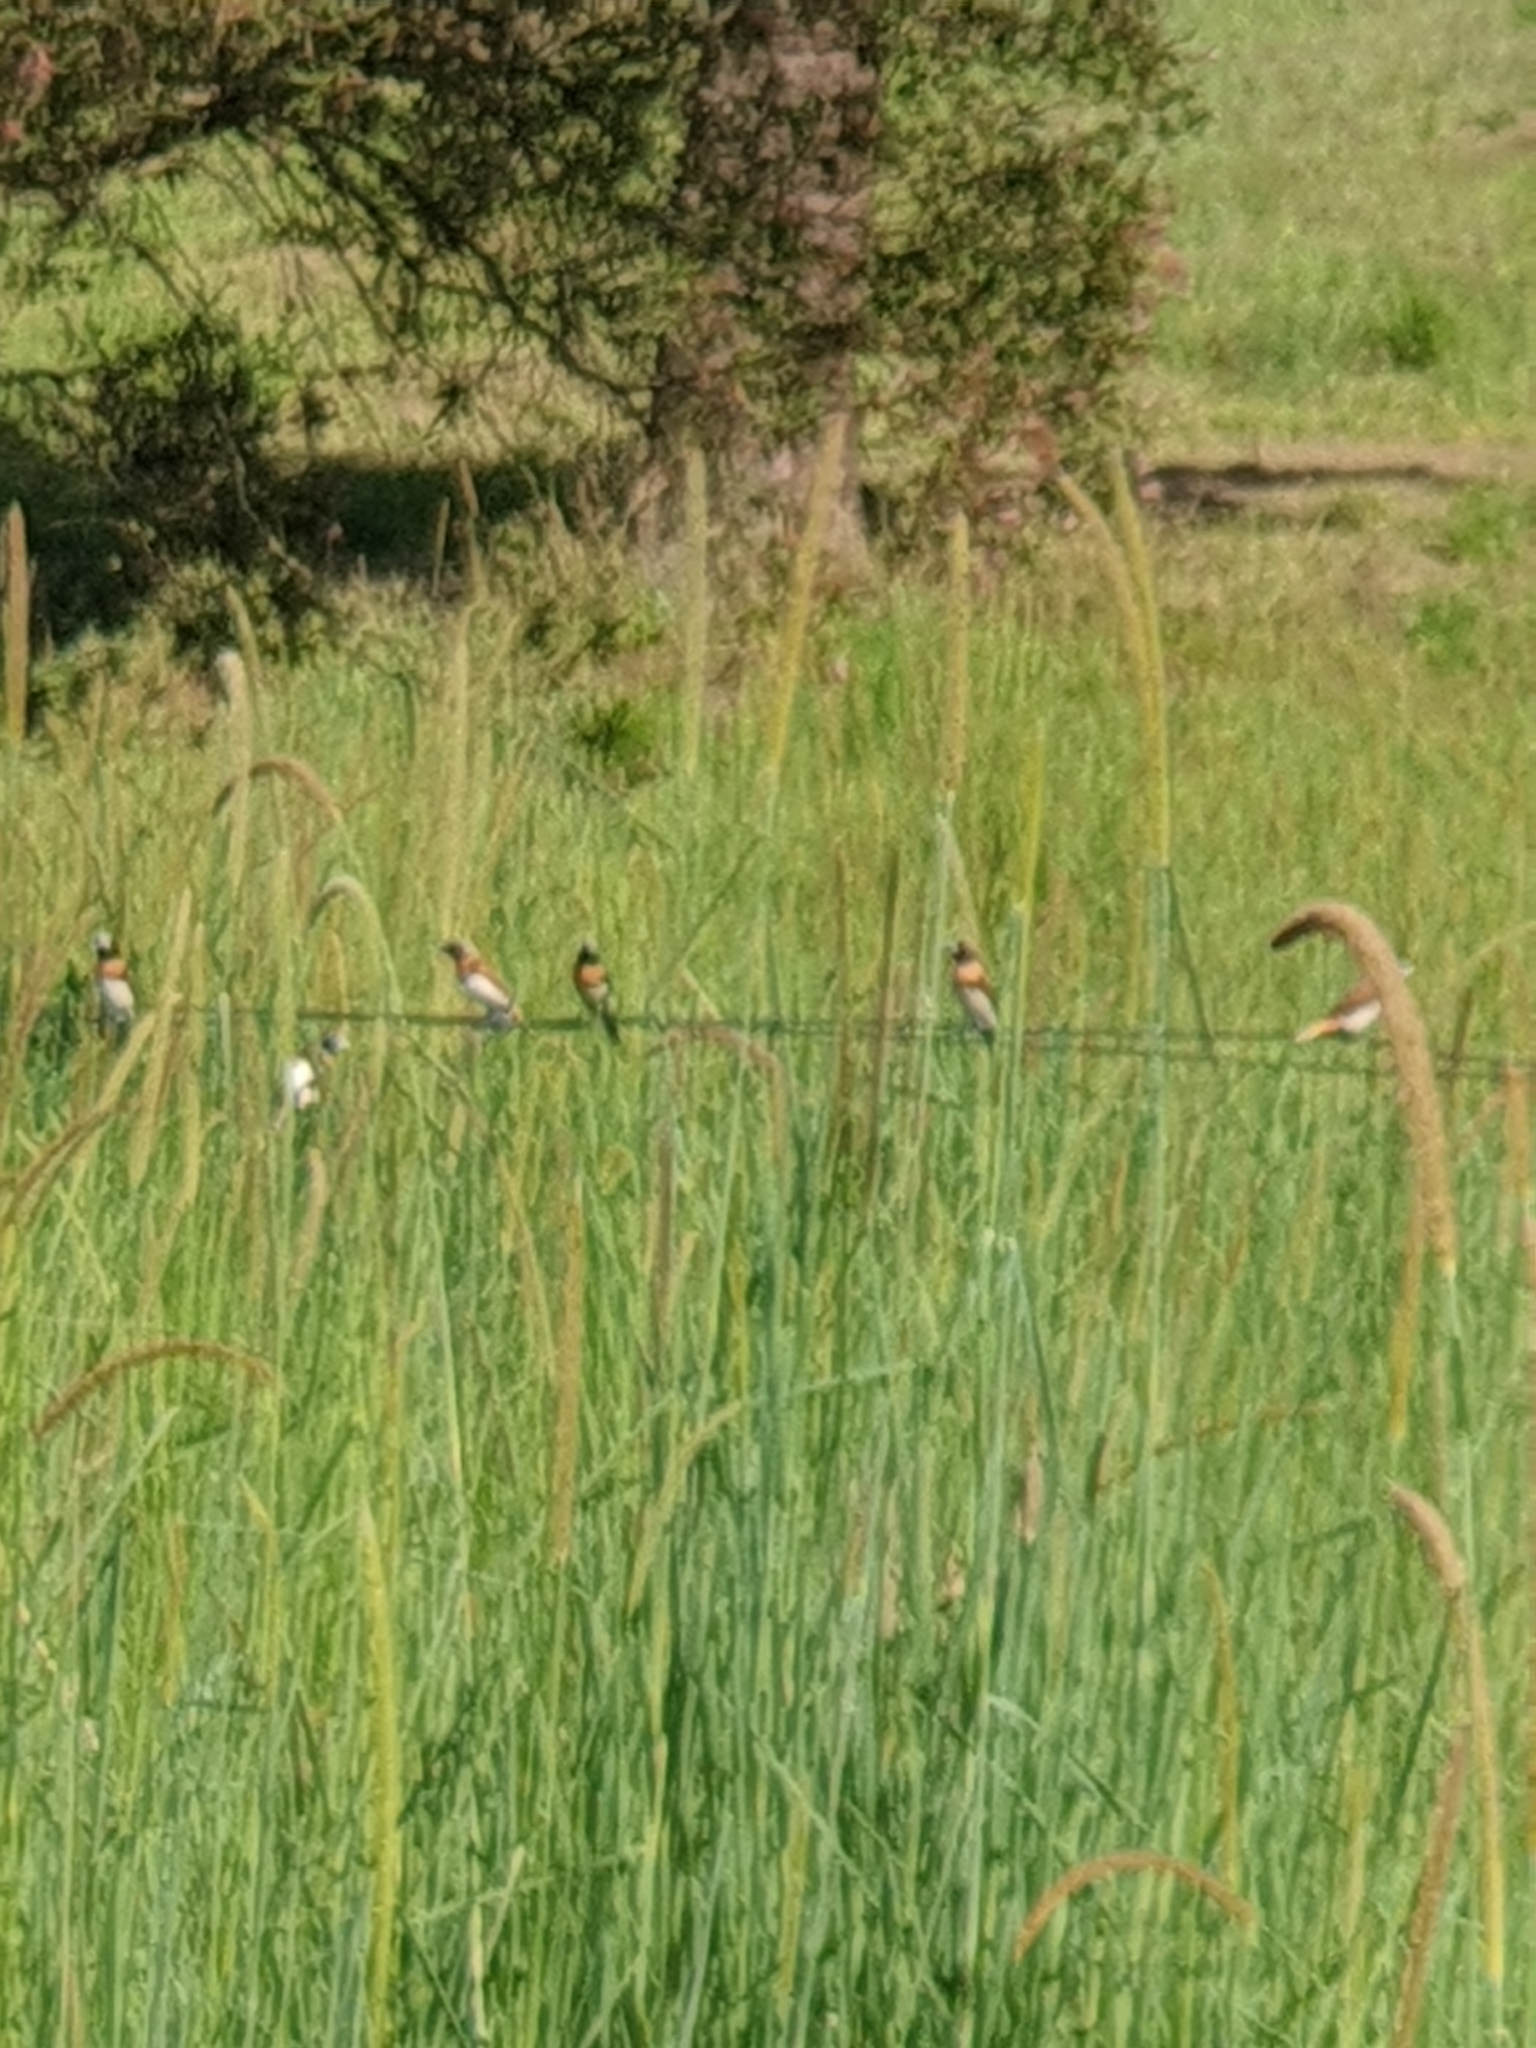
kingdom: Animalia
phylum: Chordata
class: Aves
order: Passeriformes
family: Estrildidae
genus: Lonchura
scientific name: Lonchura castaneothorax
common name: Chestnut-breasted mannikin
